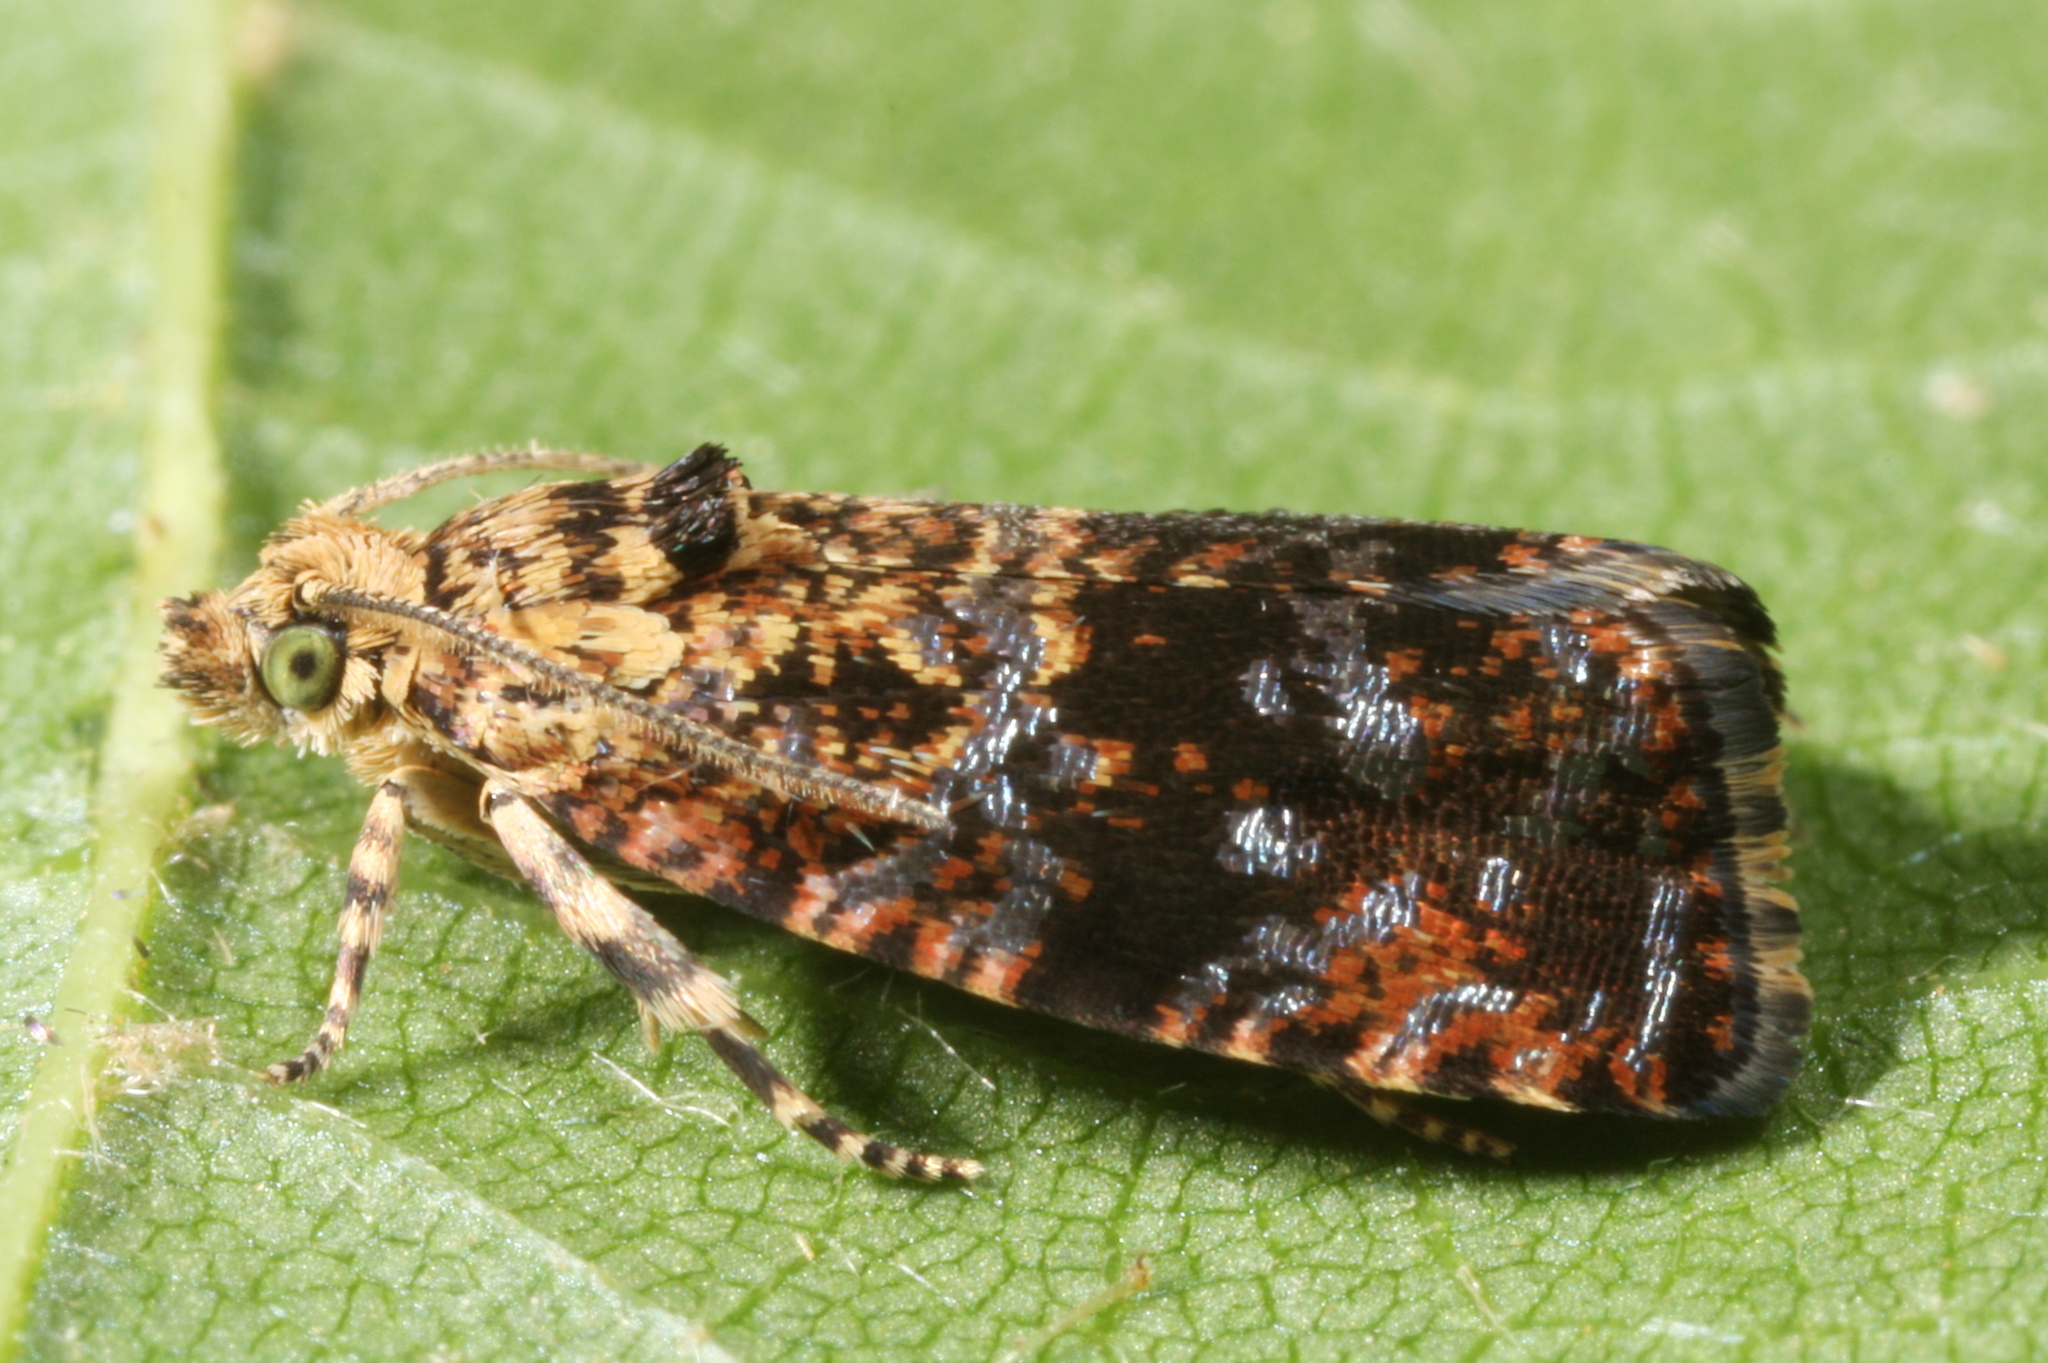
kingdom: Animalia
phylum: Arthropoda
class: Insecta
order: Lepidoptera
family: Tortricidae
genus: Selenodes
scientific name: Selenodes karelica
